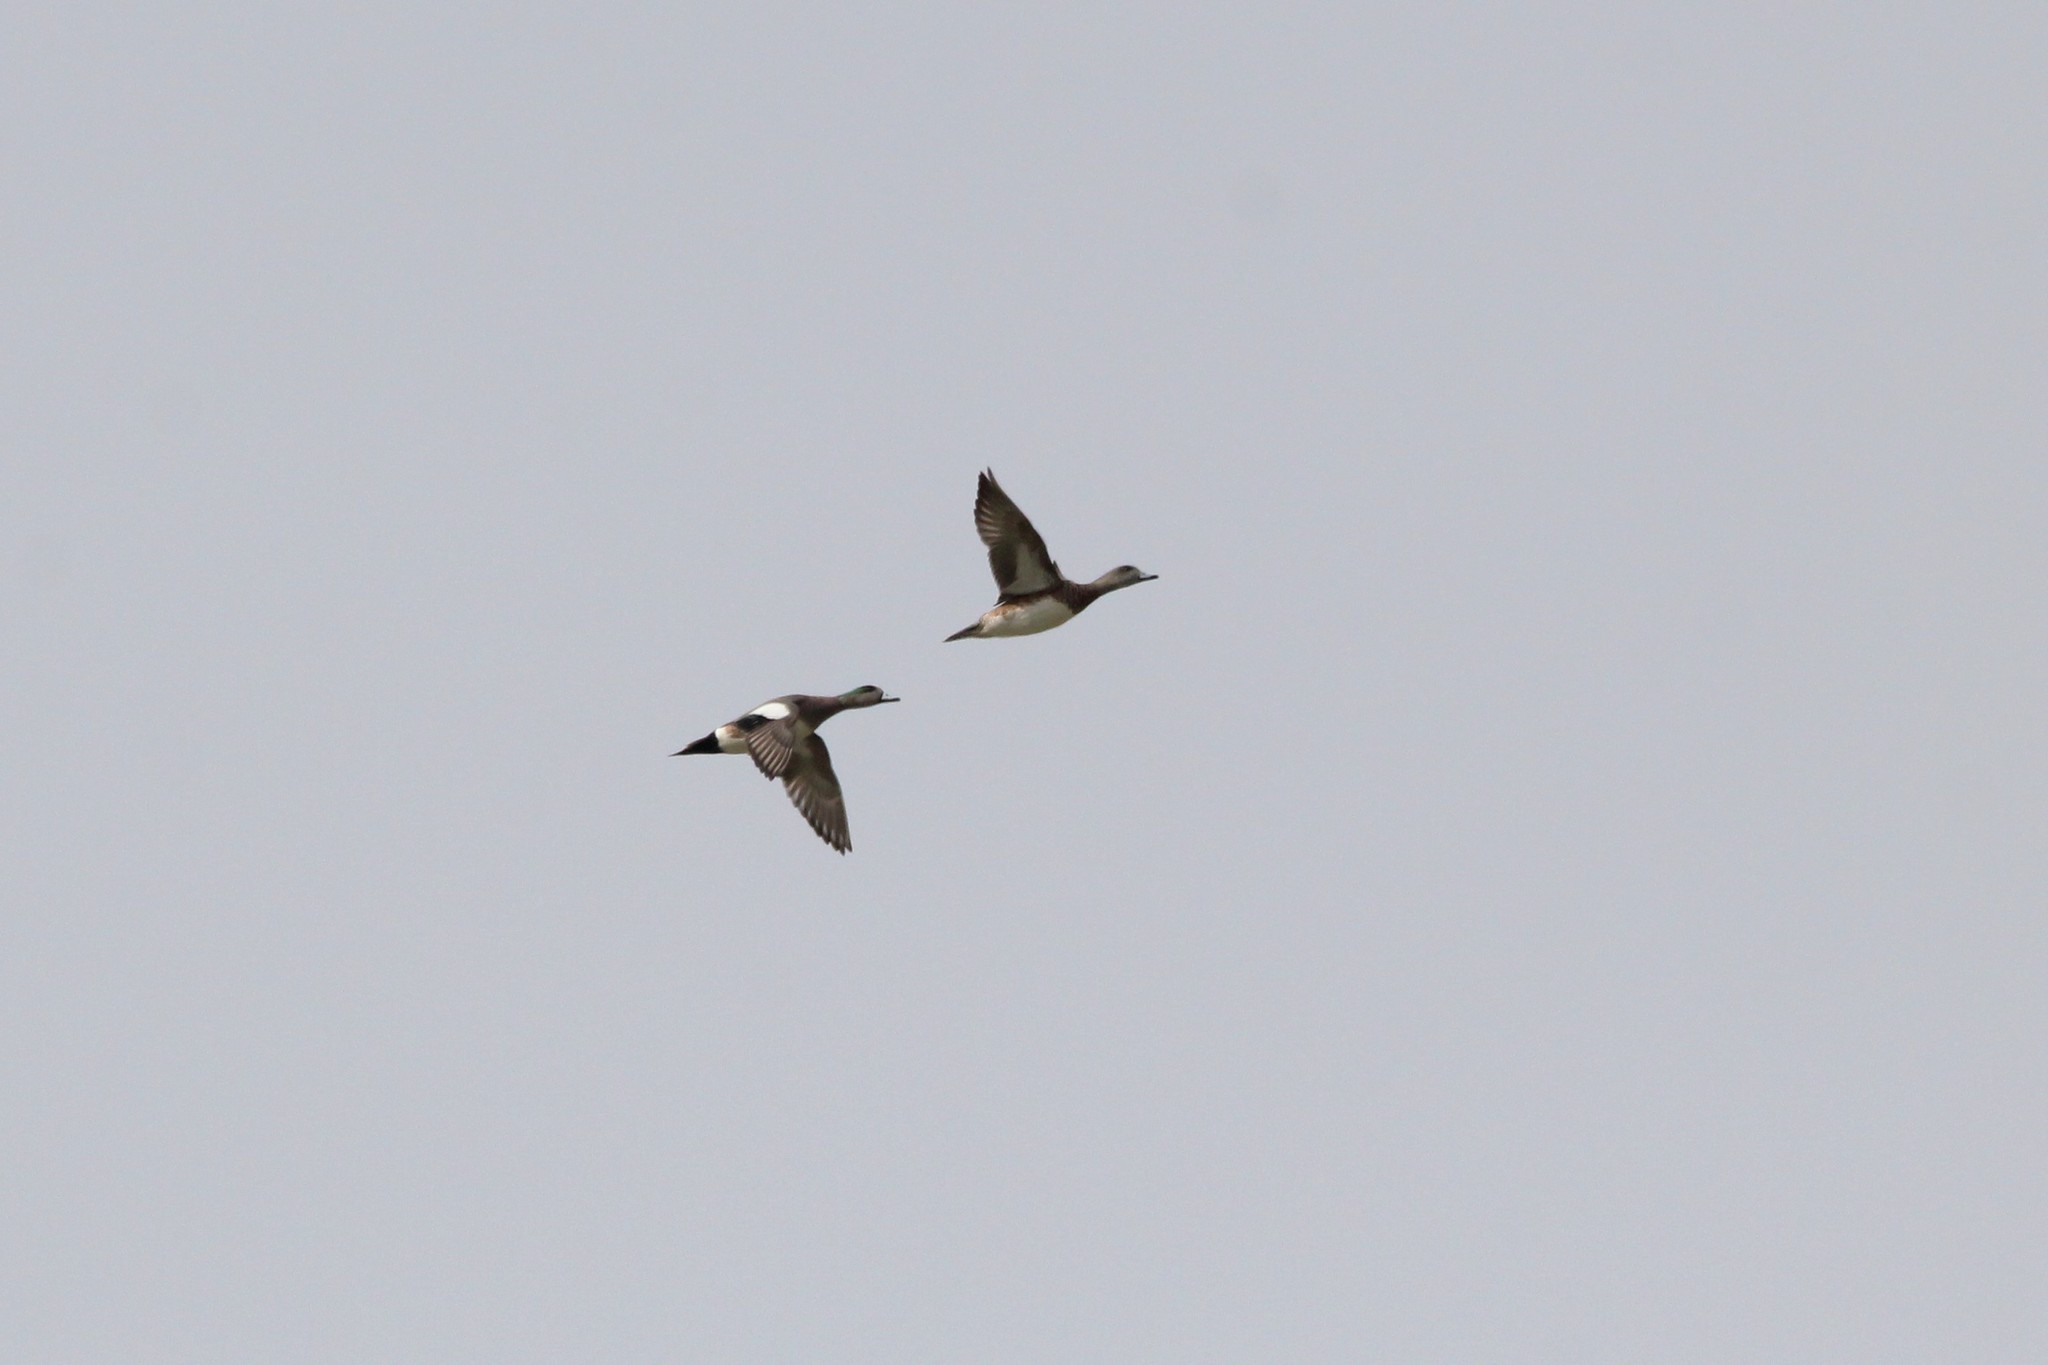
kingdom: Animalia
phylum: Chordata
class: Aves
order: Anseriformes
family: Anatidae
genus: Mareca
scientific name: Mareca americana
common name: American wigeon
